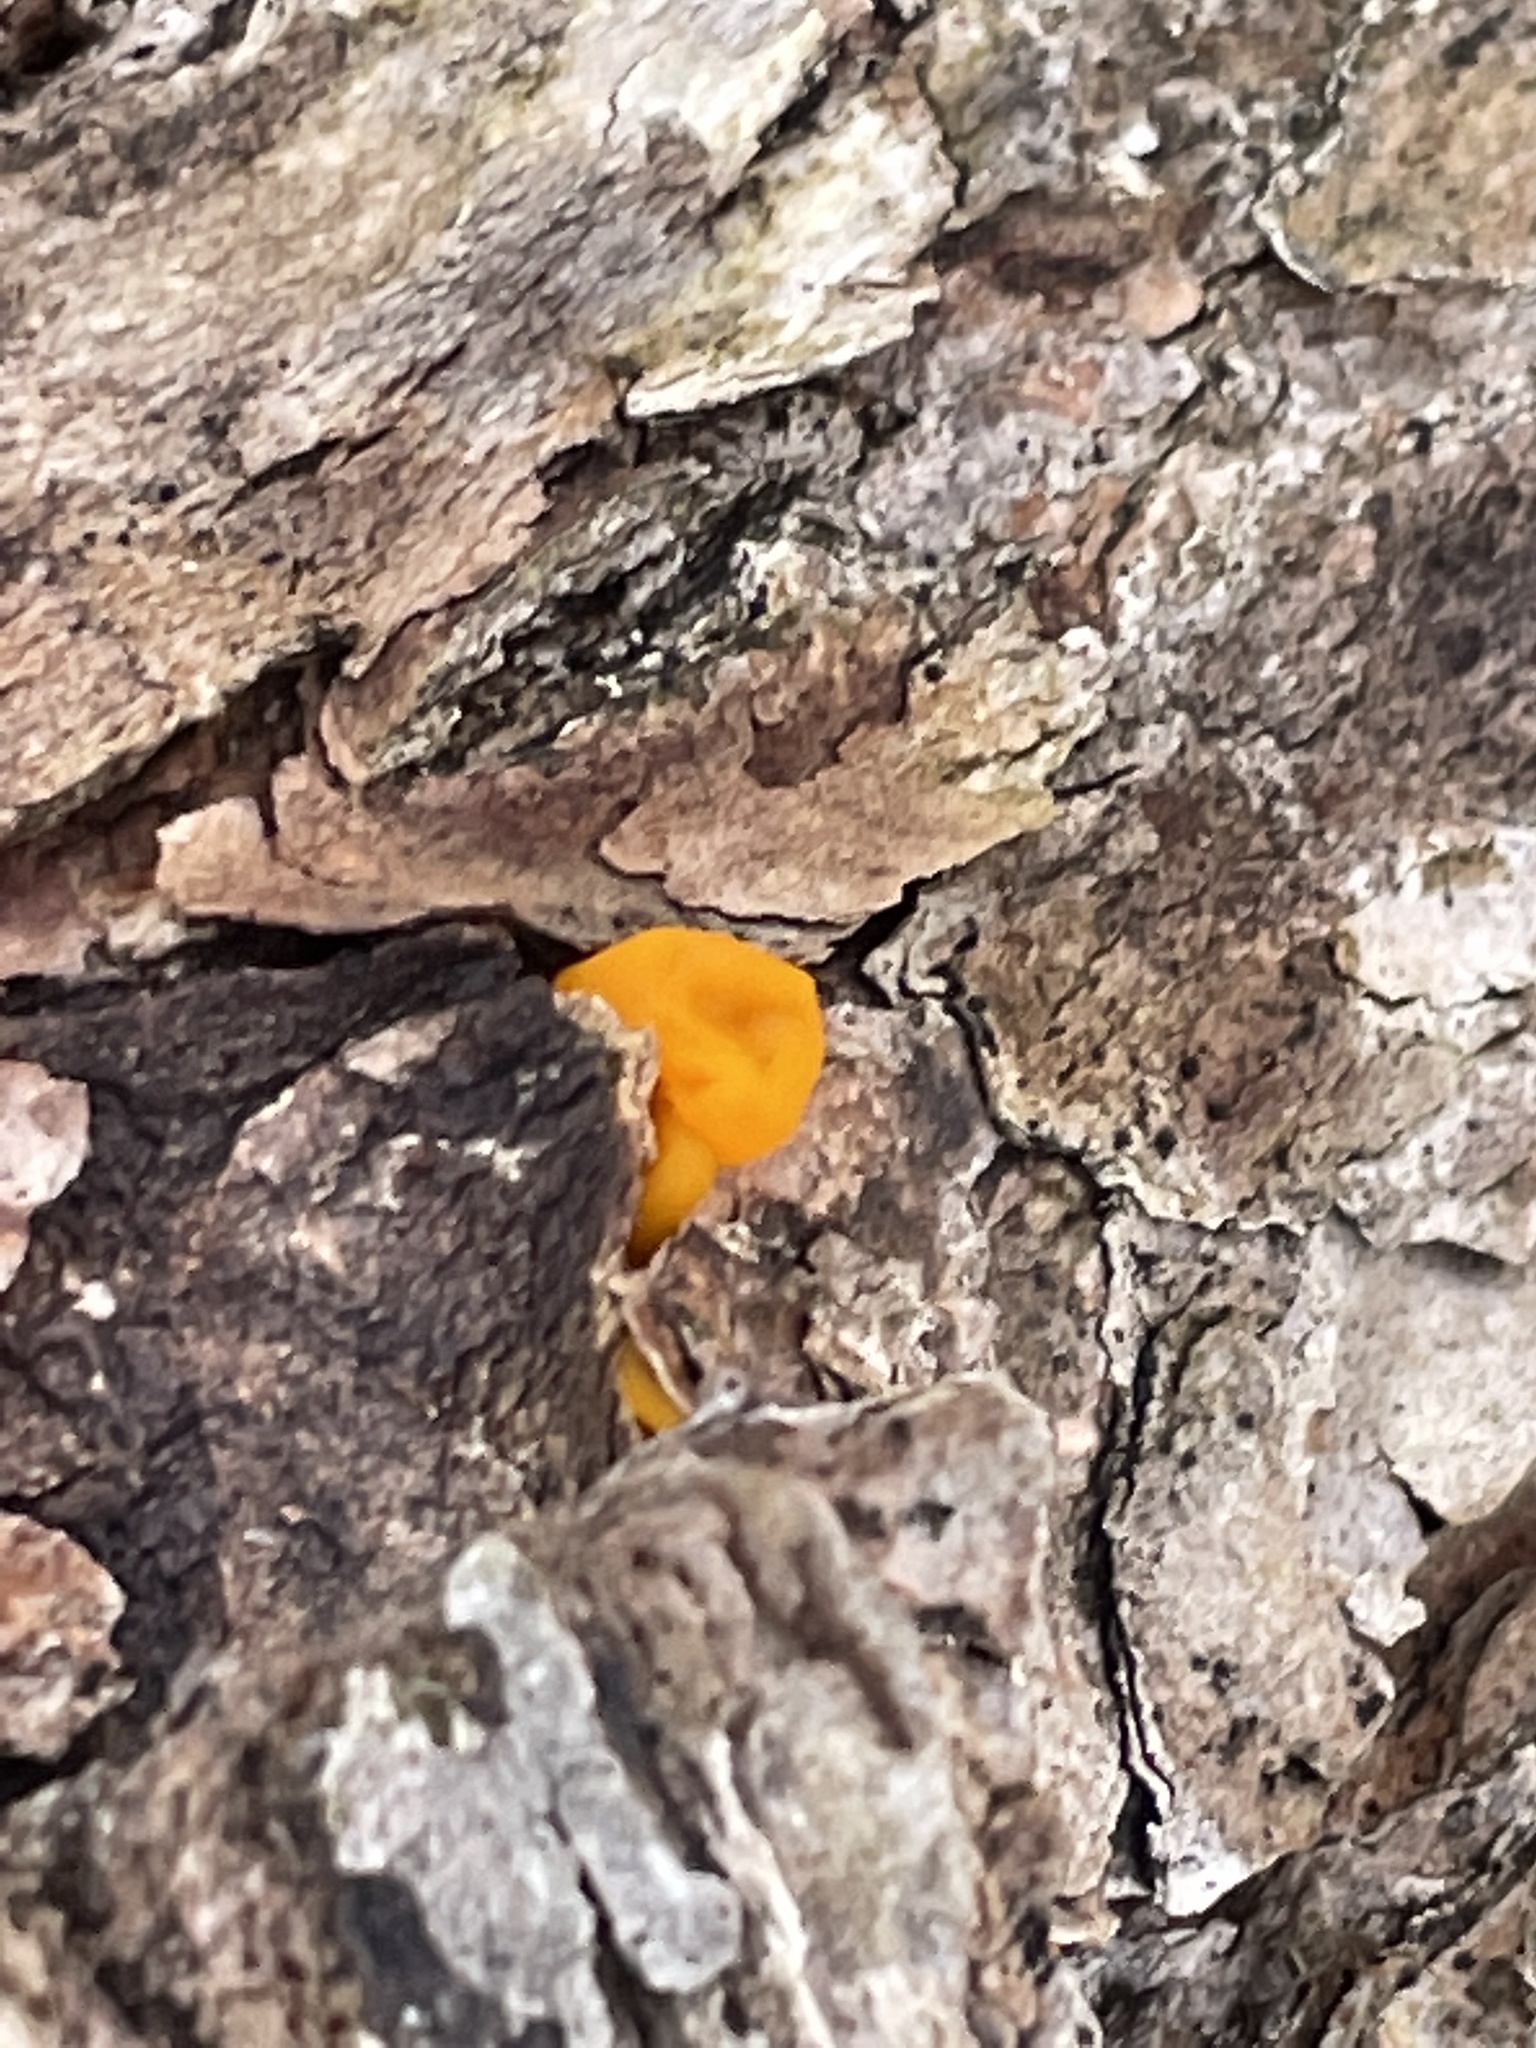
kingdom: Fungi
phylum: Basidiomycota
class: Dacrymycetes
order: Dacrymycetales
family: Dacrymycetaceae
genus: Dacrymyces
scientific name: Dacrymyces chrysospermus
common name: Orange jelly spot
